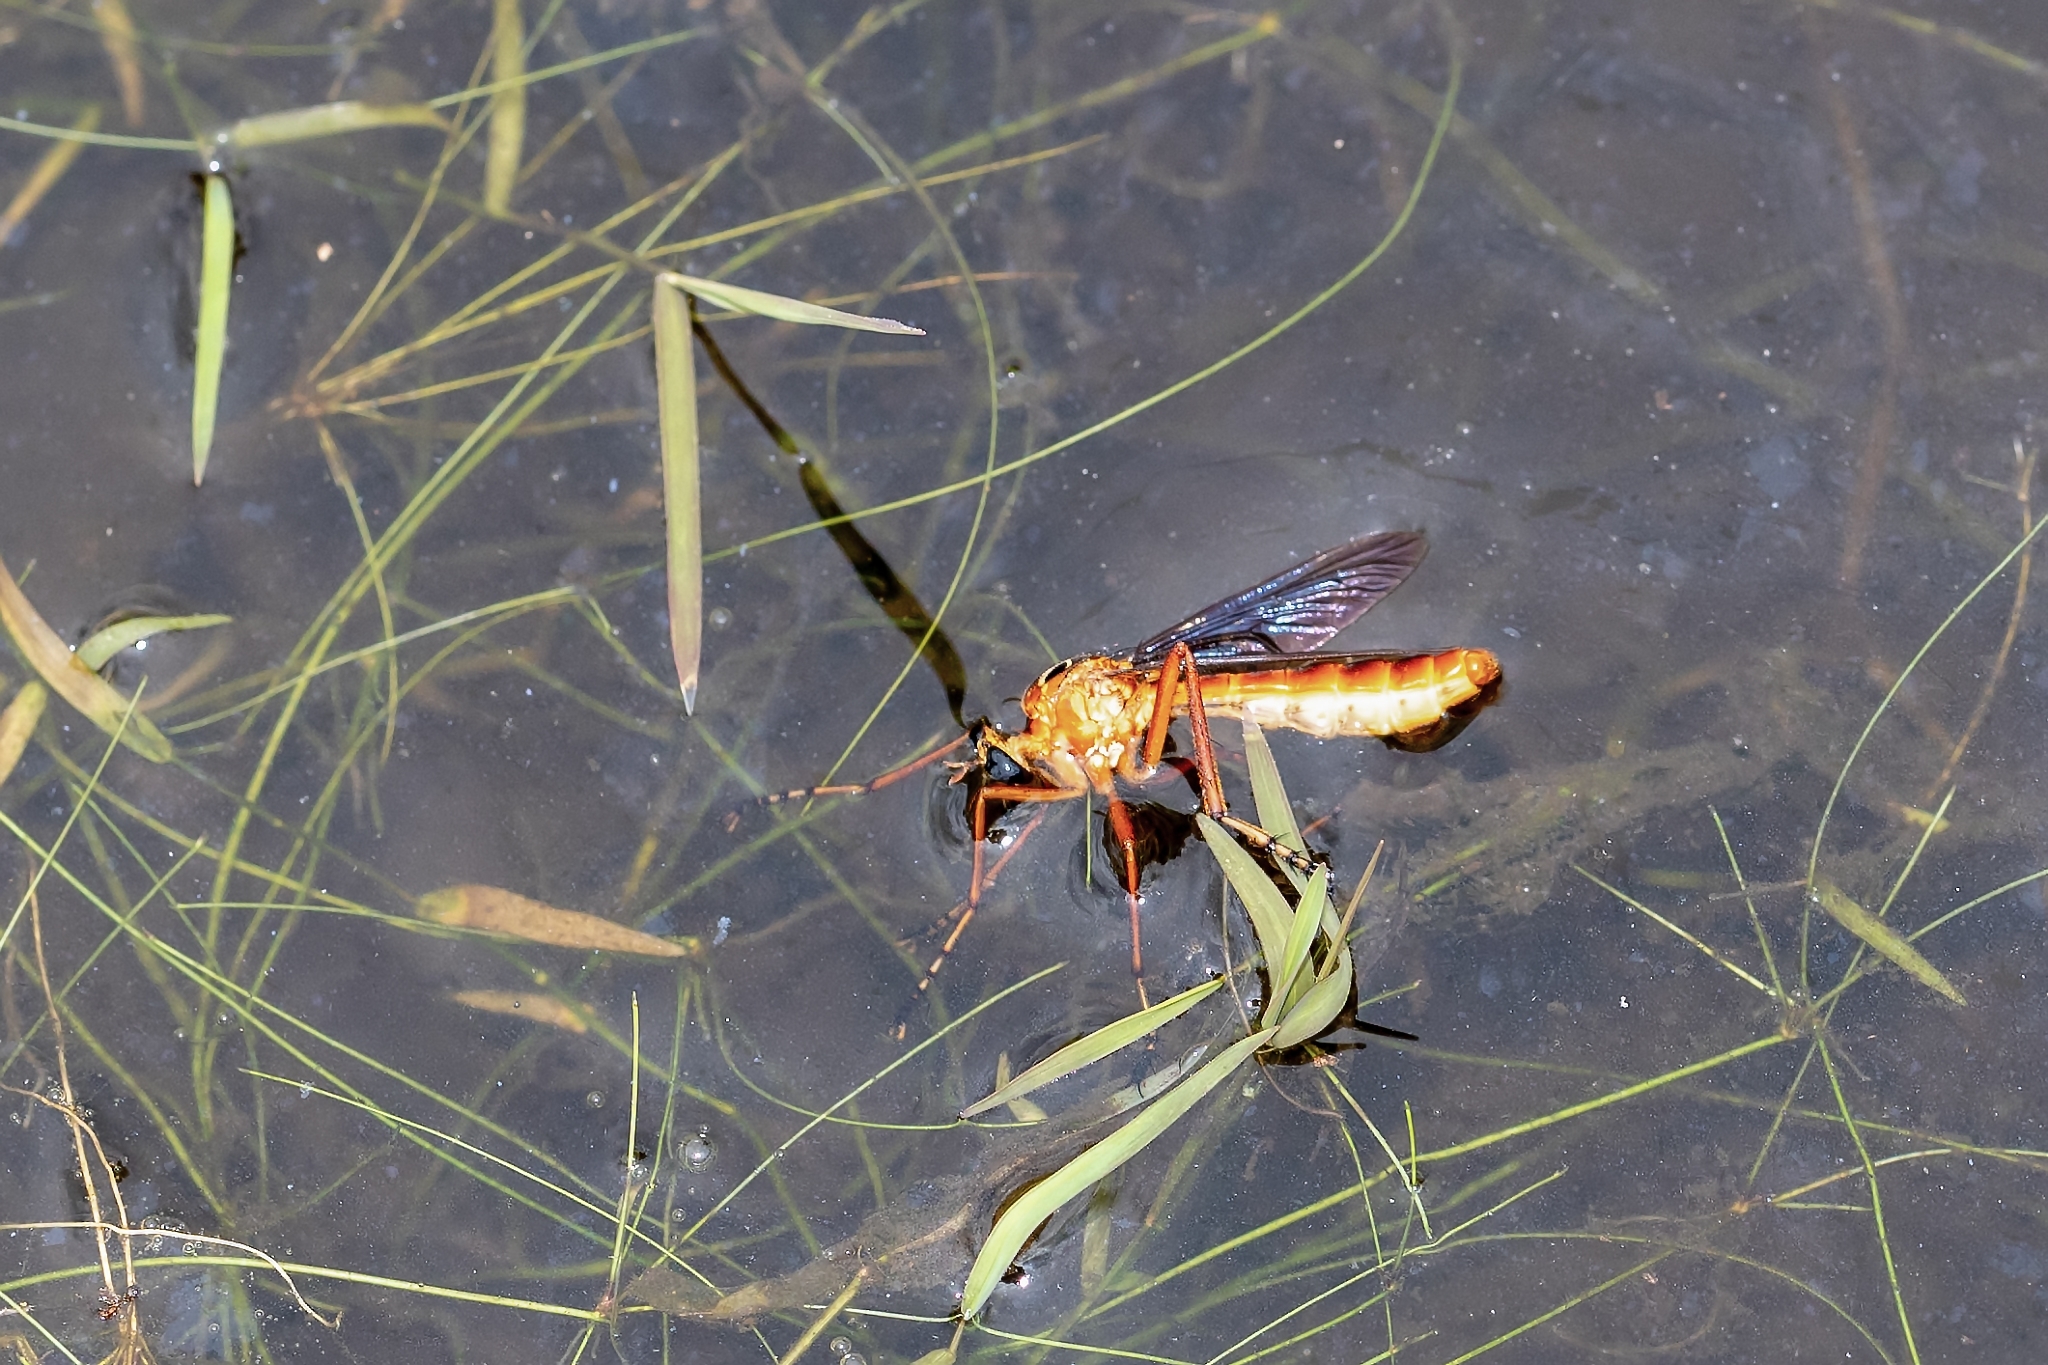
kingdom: Animalia
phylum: Arthropoda
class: Insecta
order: Diptera
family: Asilidae
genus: Diogmites
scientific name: Diogmites neoternatus
